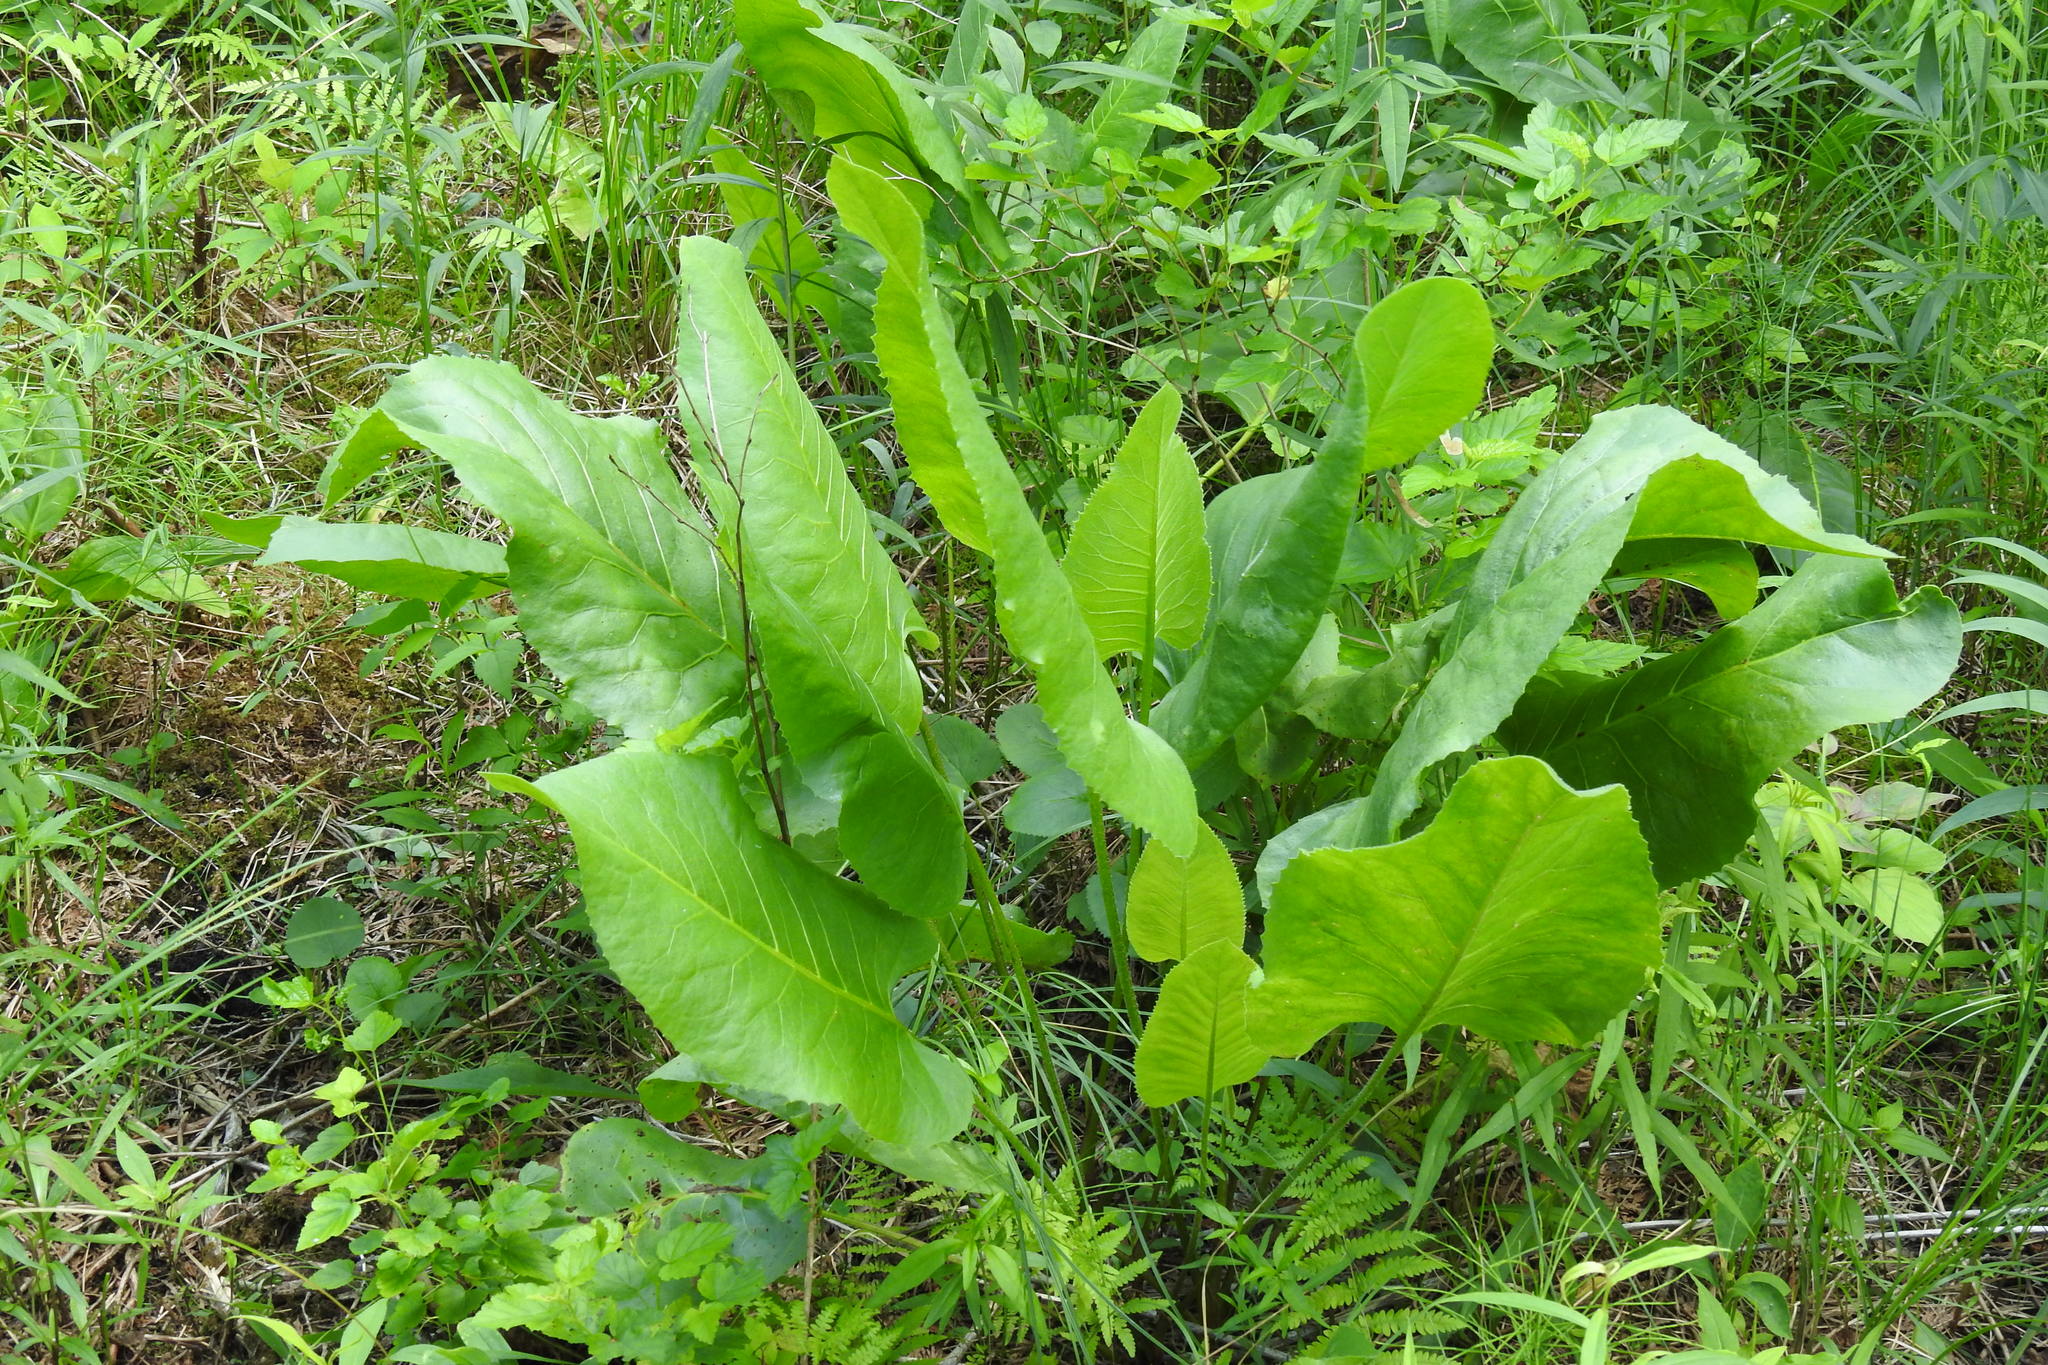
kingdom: Plantae
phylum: Tracheophyta
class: Magnoliopsida
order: Asterales
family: Asteraceae
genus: Silphium
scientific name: Silphium terebinthinaceum
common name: Basal-leaf rosinweed
